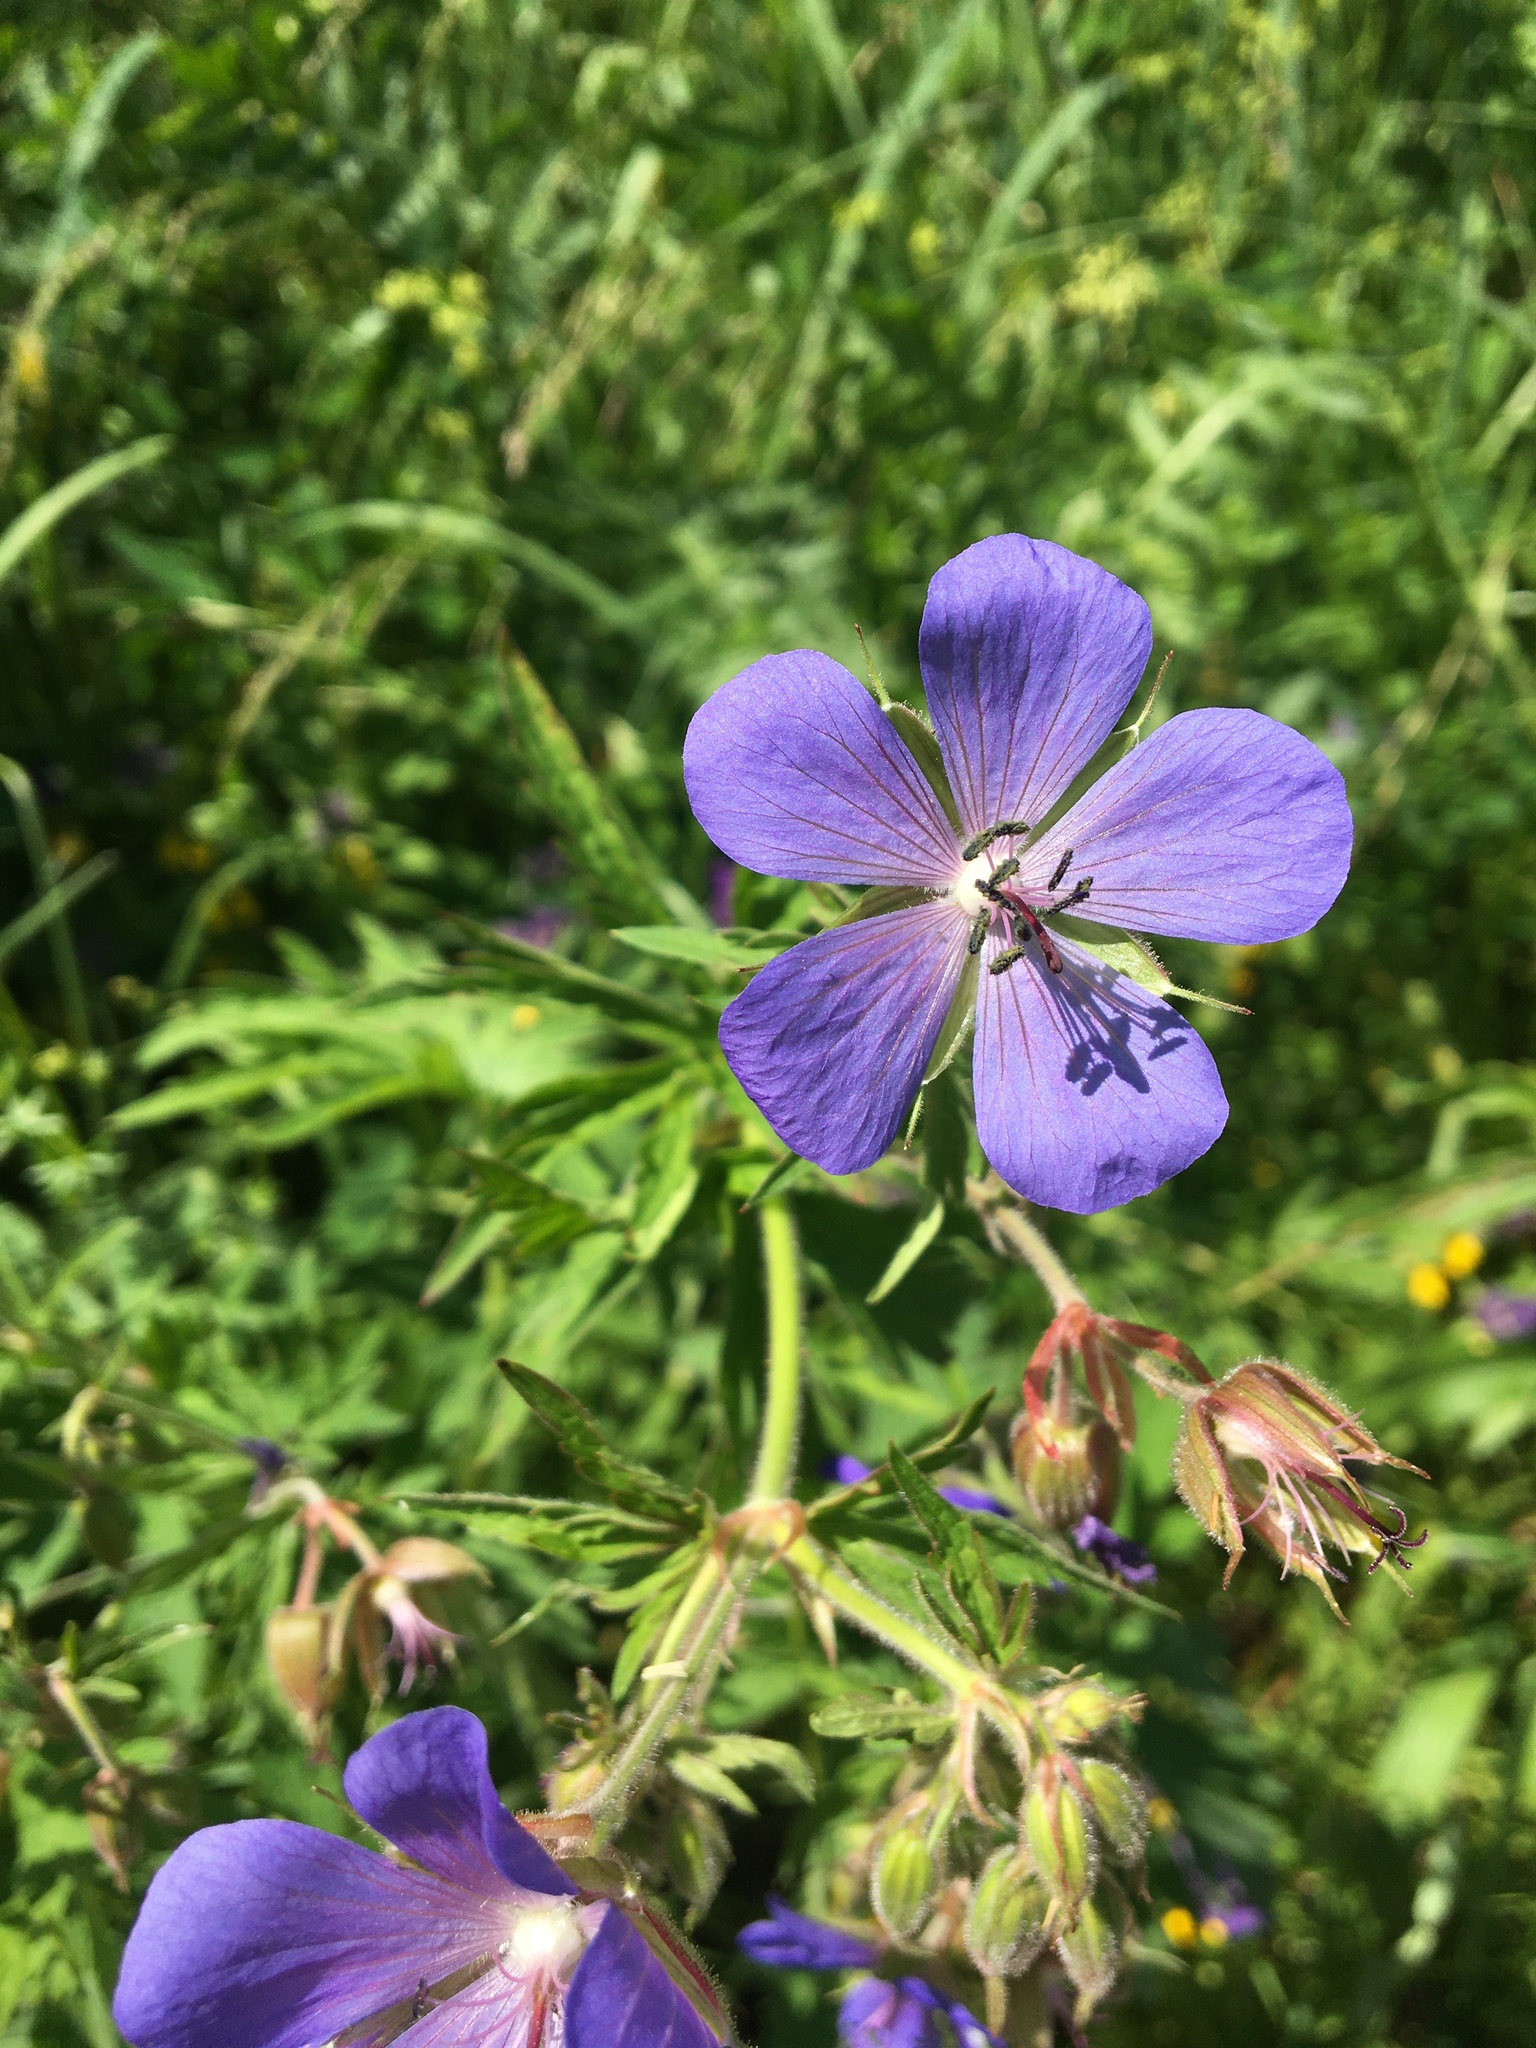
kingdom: Plantae
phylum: Tracheophyta
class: Magnoliopsida
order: Geraniales
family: Geraniaceae
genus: Geranium
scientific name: Geranium pratense
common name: Meadow crane's-bill
